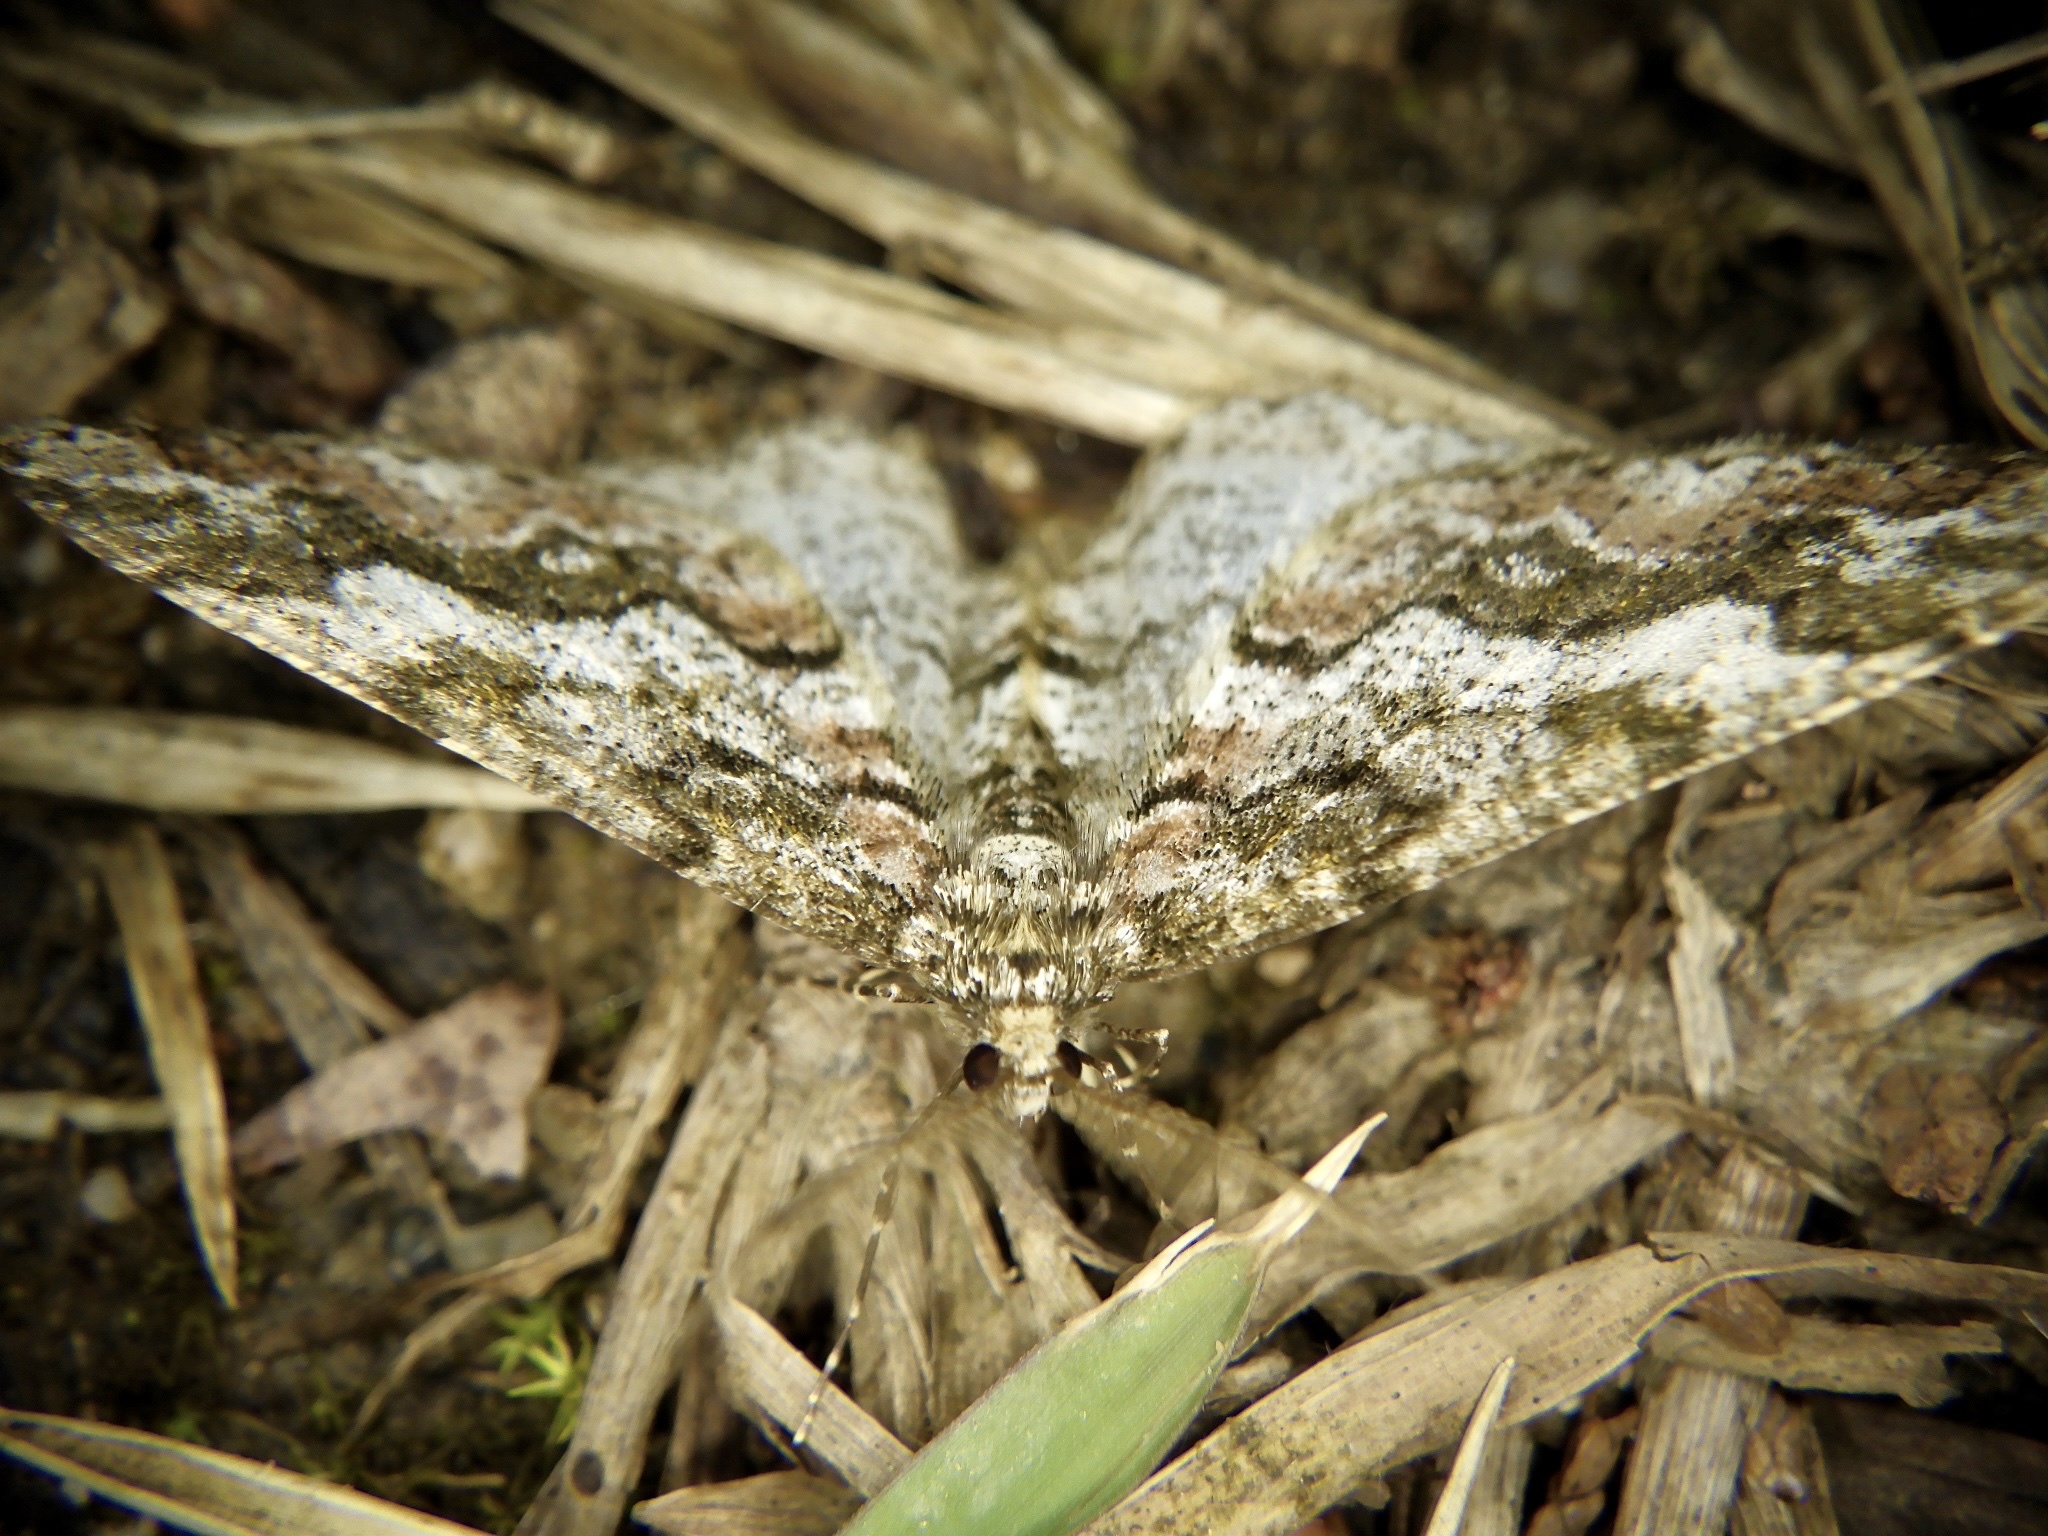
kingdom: Animalia
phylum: Arthropoda
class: Insecta
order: Lepidoptera
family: Geometridae
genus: Pseuderannis
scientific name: Pseuderannis amplipennis
